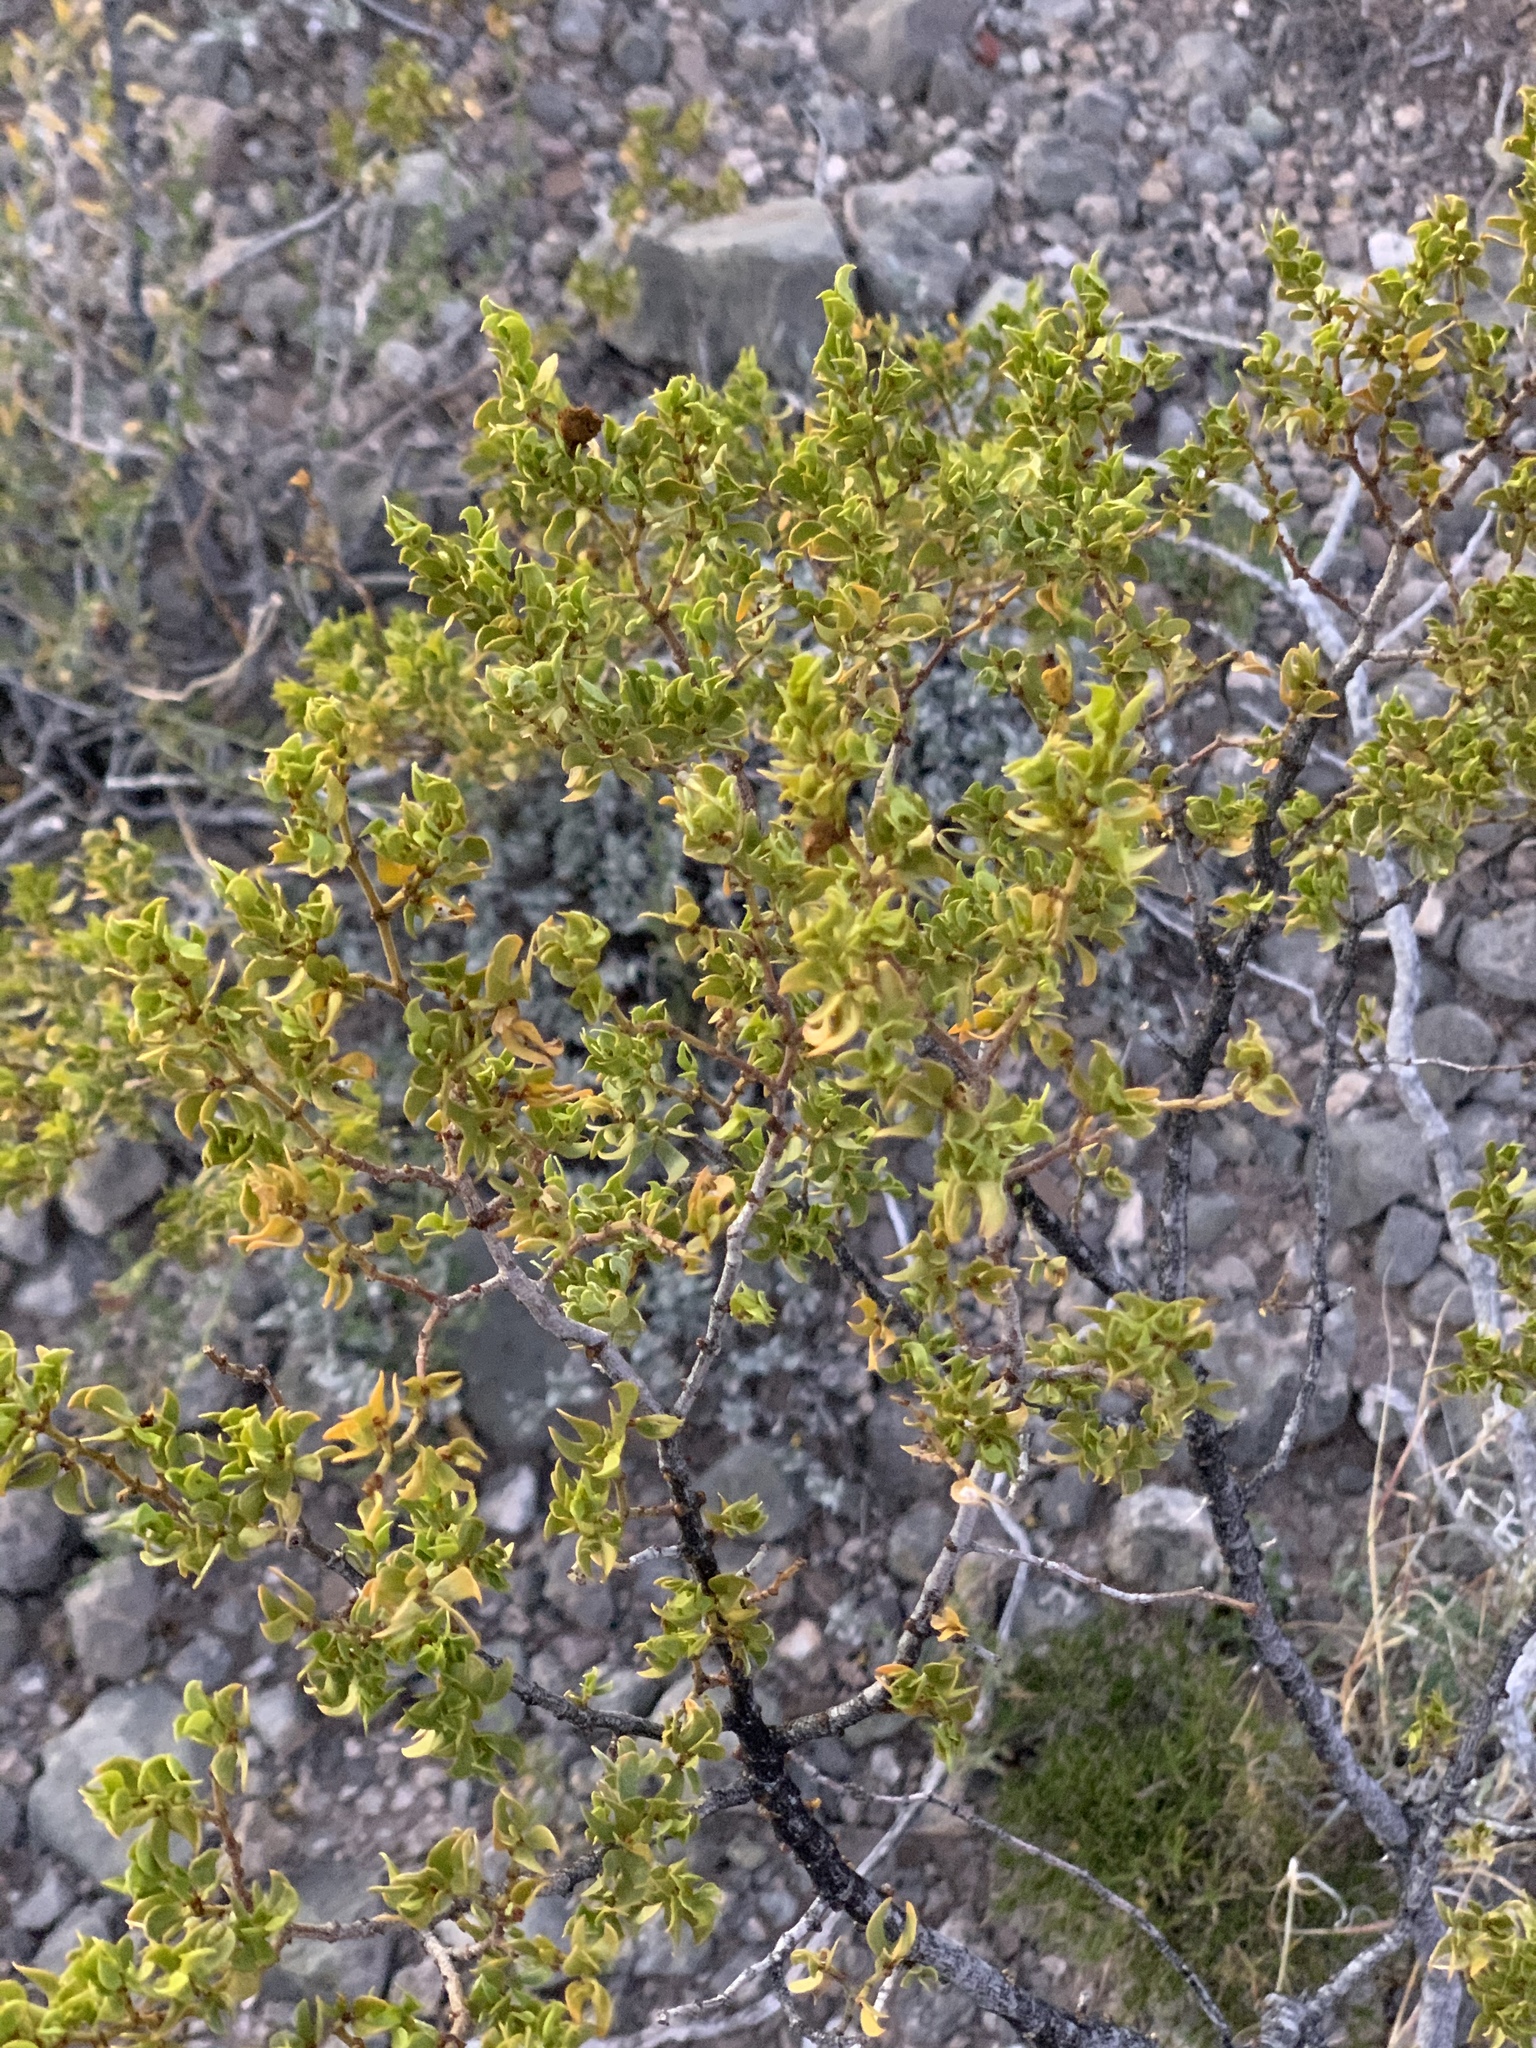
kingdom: Plantae
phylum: Tracheophyta
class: Magnoliopsida
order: Zygophyllales
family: Zygophyllaceae
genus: Larrea
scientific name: Larrea tridentata
